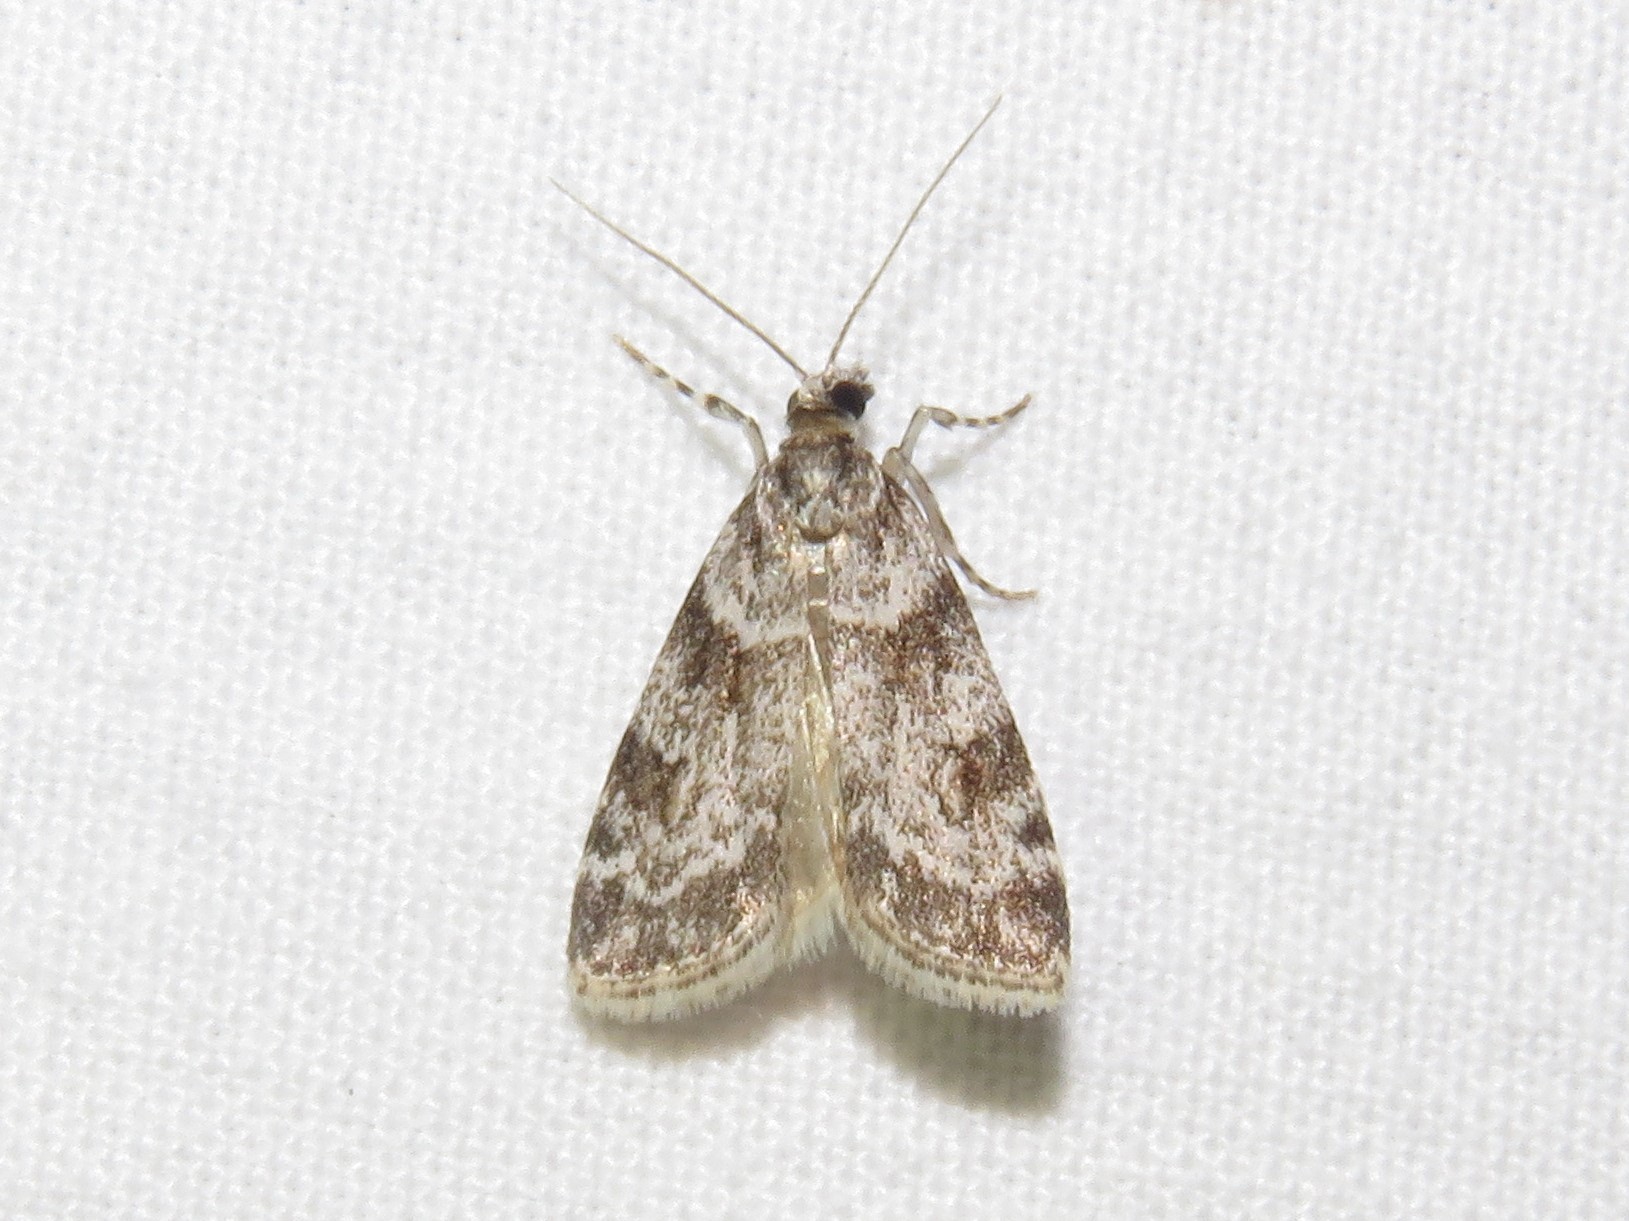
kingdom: Animalia
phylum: Arthropoda
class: Insecta
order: Lepidoptera
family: Crambidae
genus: Scoparia
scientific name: Scoparia biplagialis
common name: Double-striped scoparia moth
